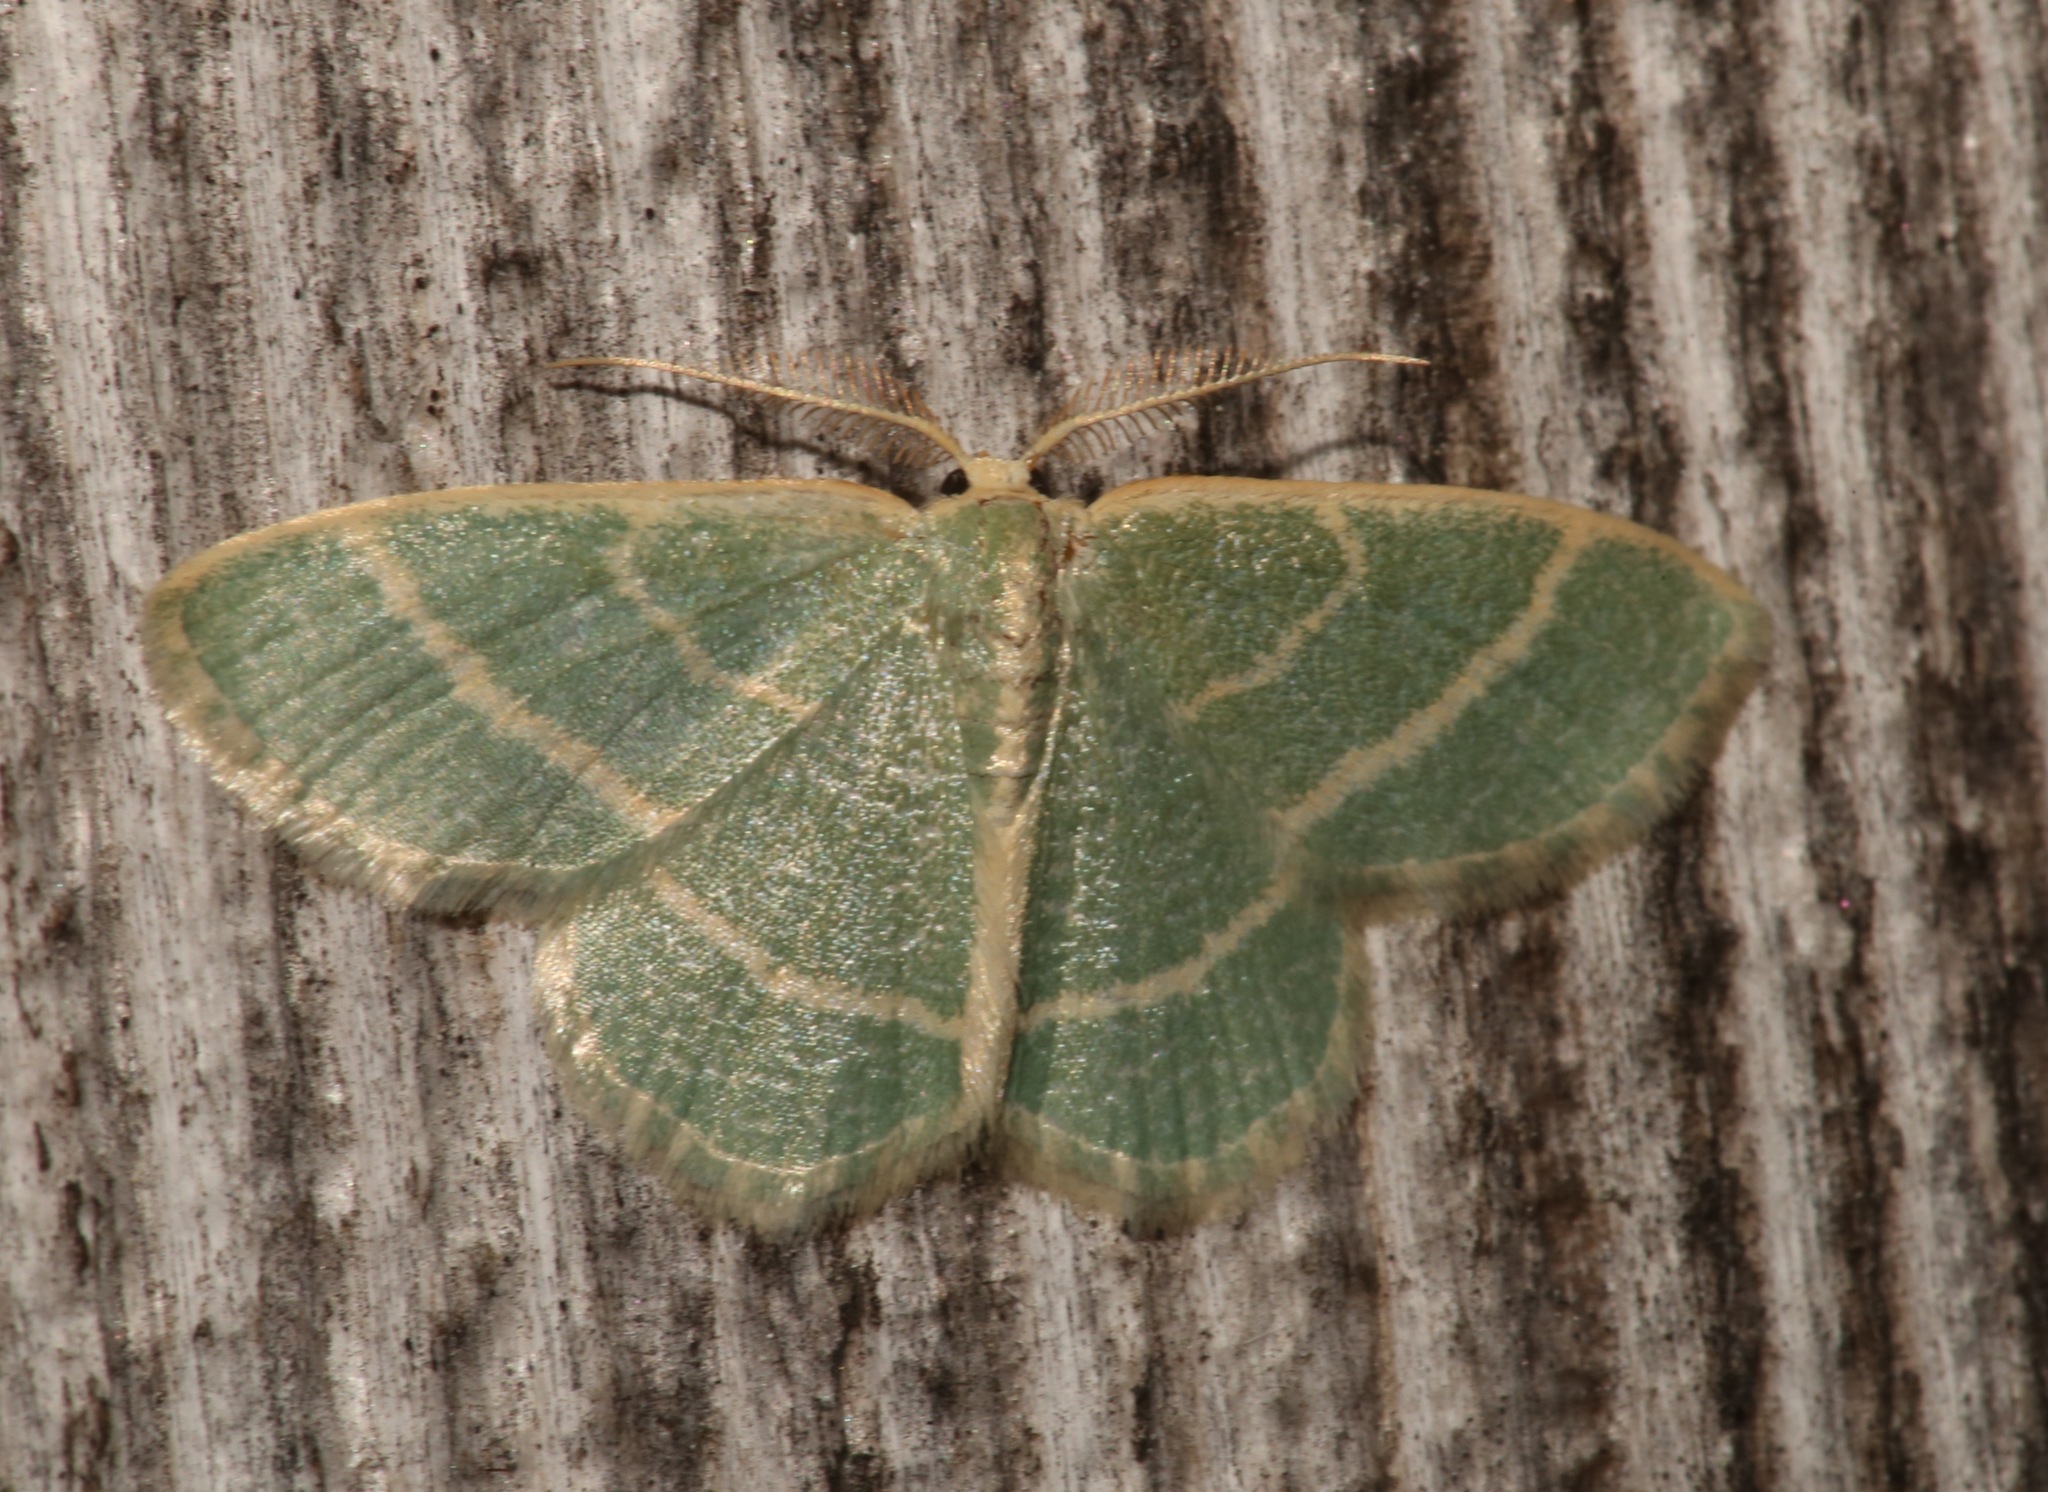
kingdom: Animalia
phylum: Arthropoda
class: Insecta
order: Lepidoptera
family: Geometridae
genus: Chlorochlamys
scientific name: Chlorochlamys chloroleucaria
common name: Blackberry looper
